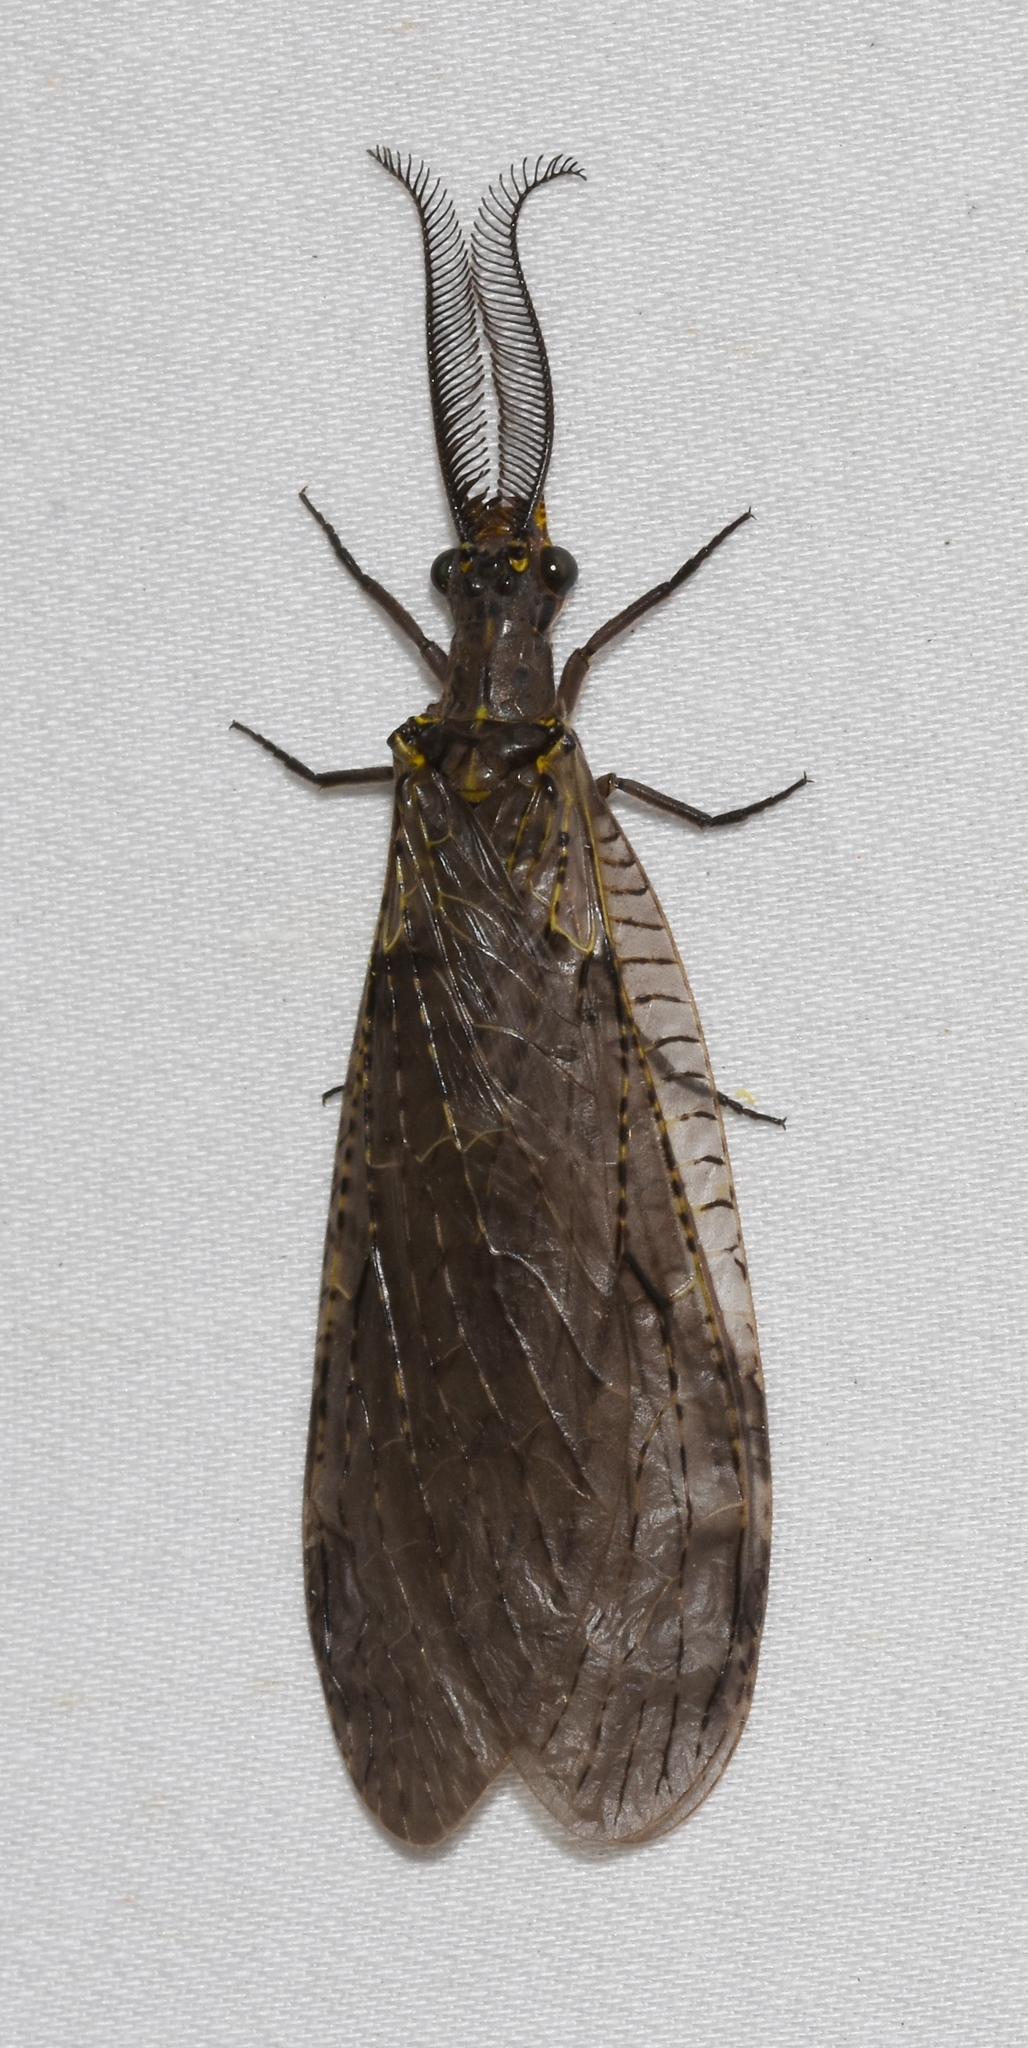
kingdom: Animalia
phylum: Arthropoda
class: Insecta
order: Megaloptera
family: Corydalidae
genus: Chauliodes
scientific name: Chauliodes rastricornis
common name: Spring fishfly
